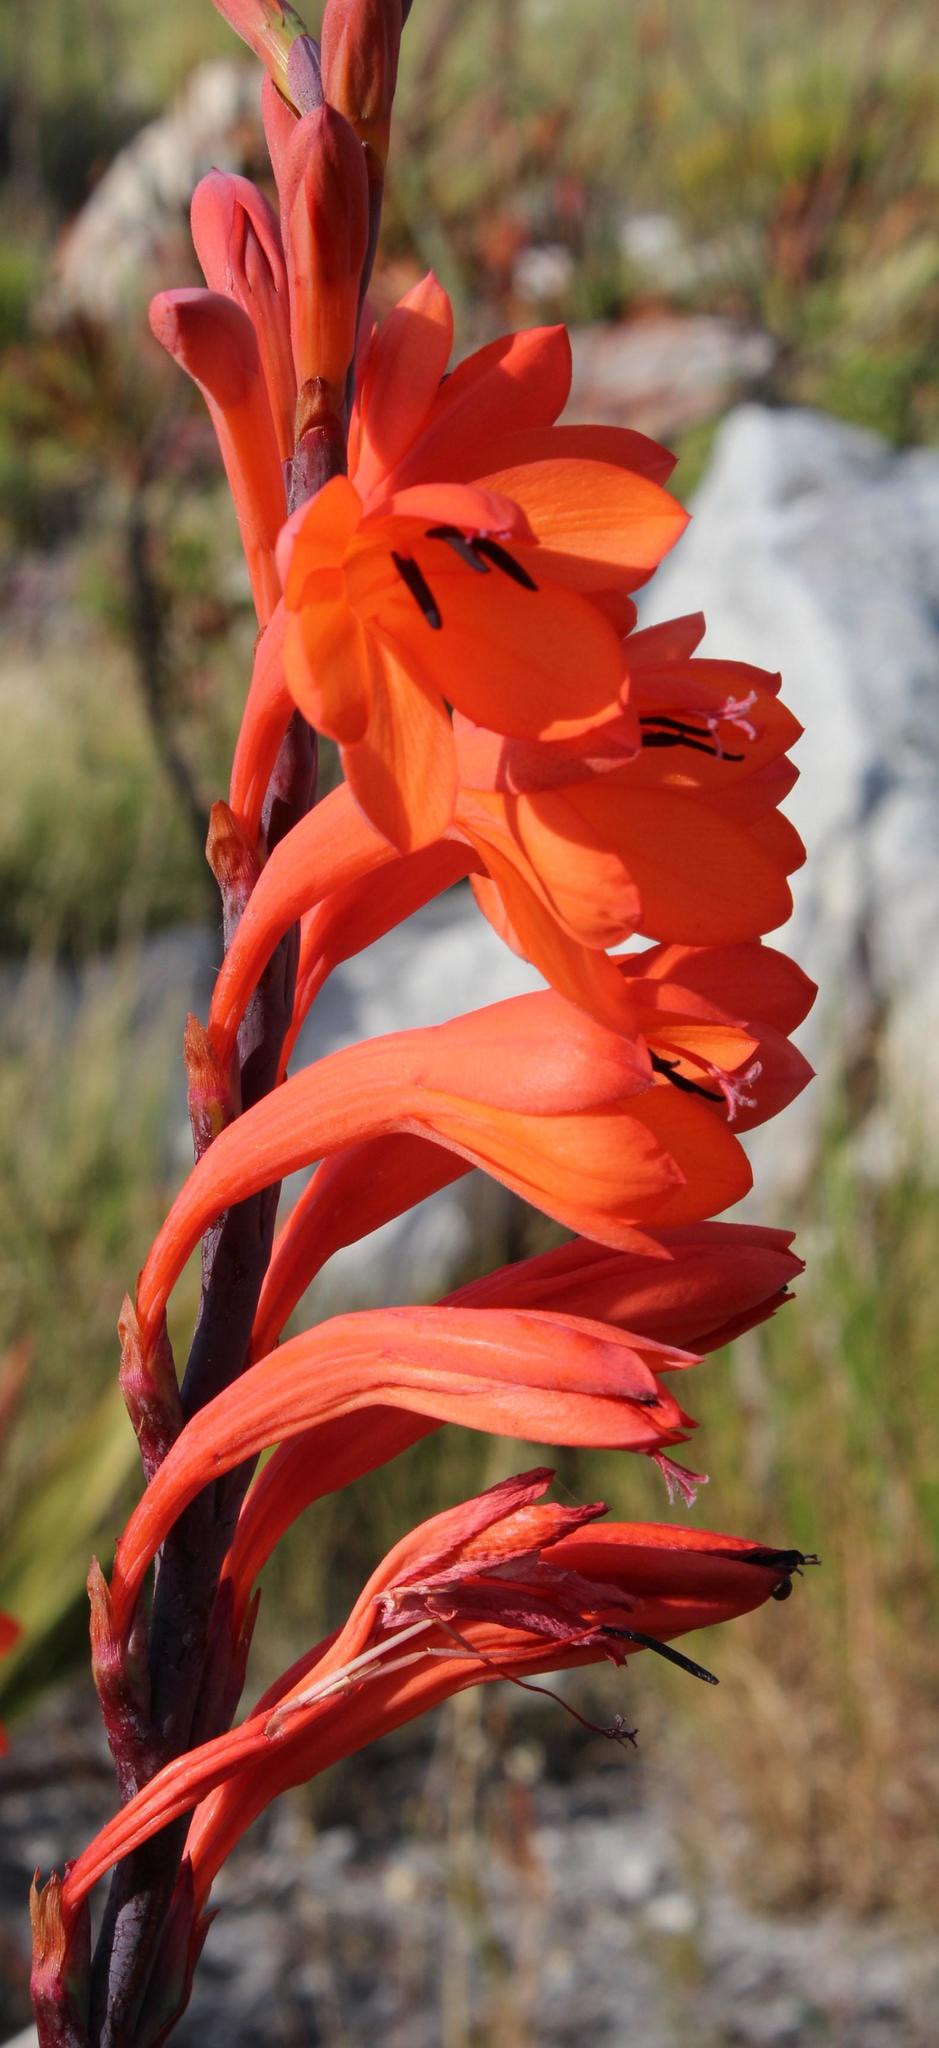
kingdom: Plantae
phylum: Tracheophyta
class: Liliopsida
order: Asparagales
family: Iridaceae
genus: Watsonia
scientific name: Watsonia tabularis
